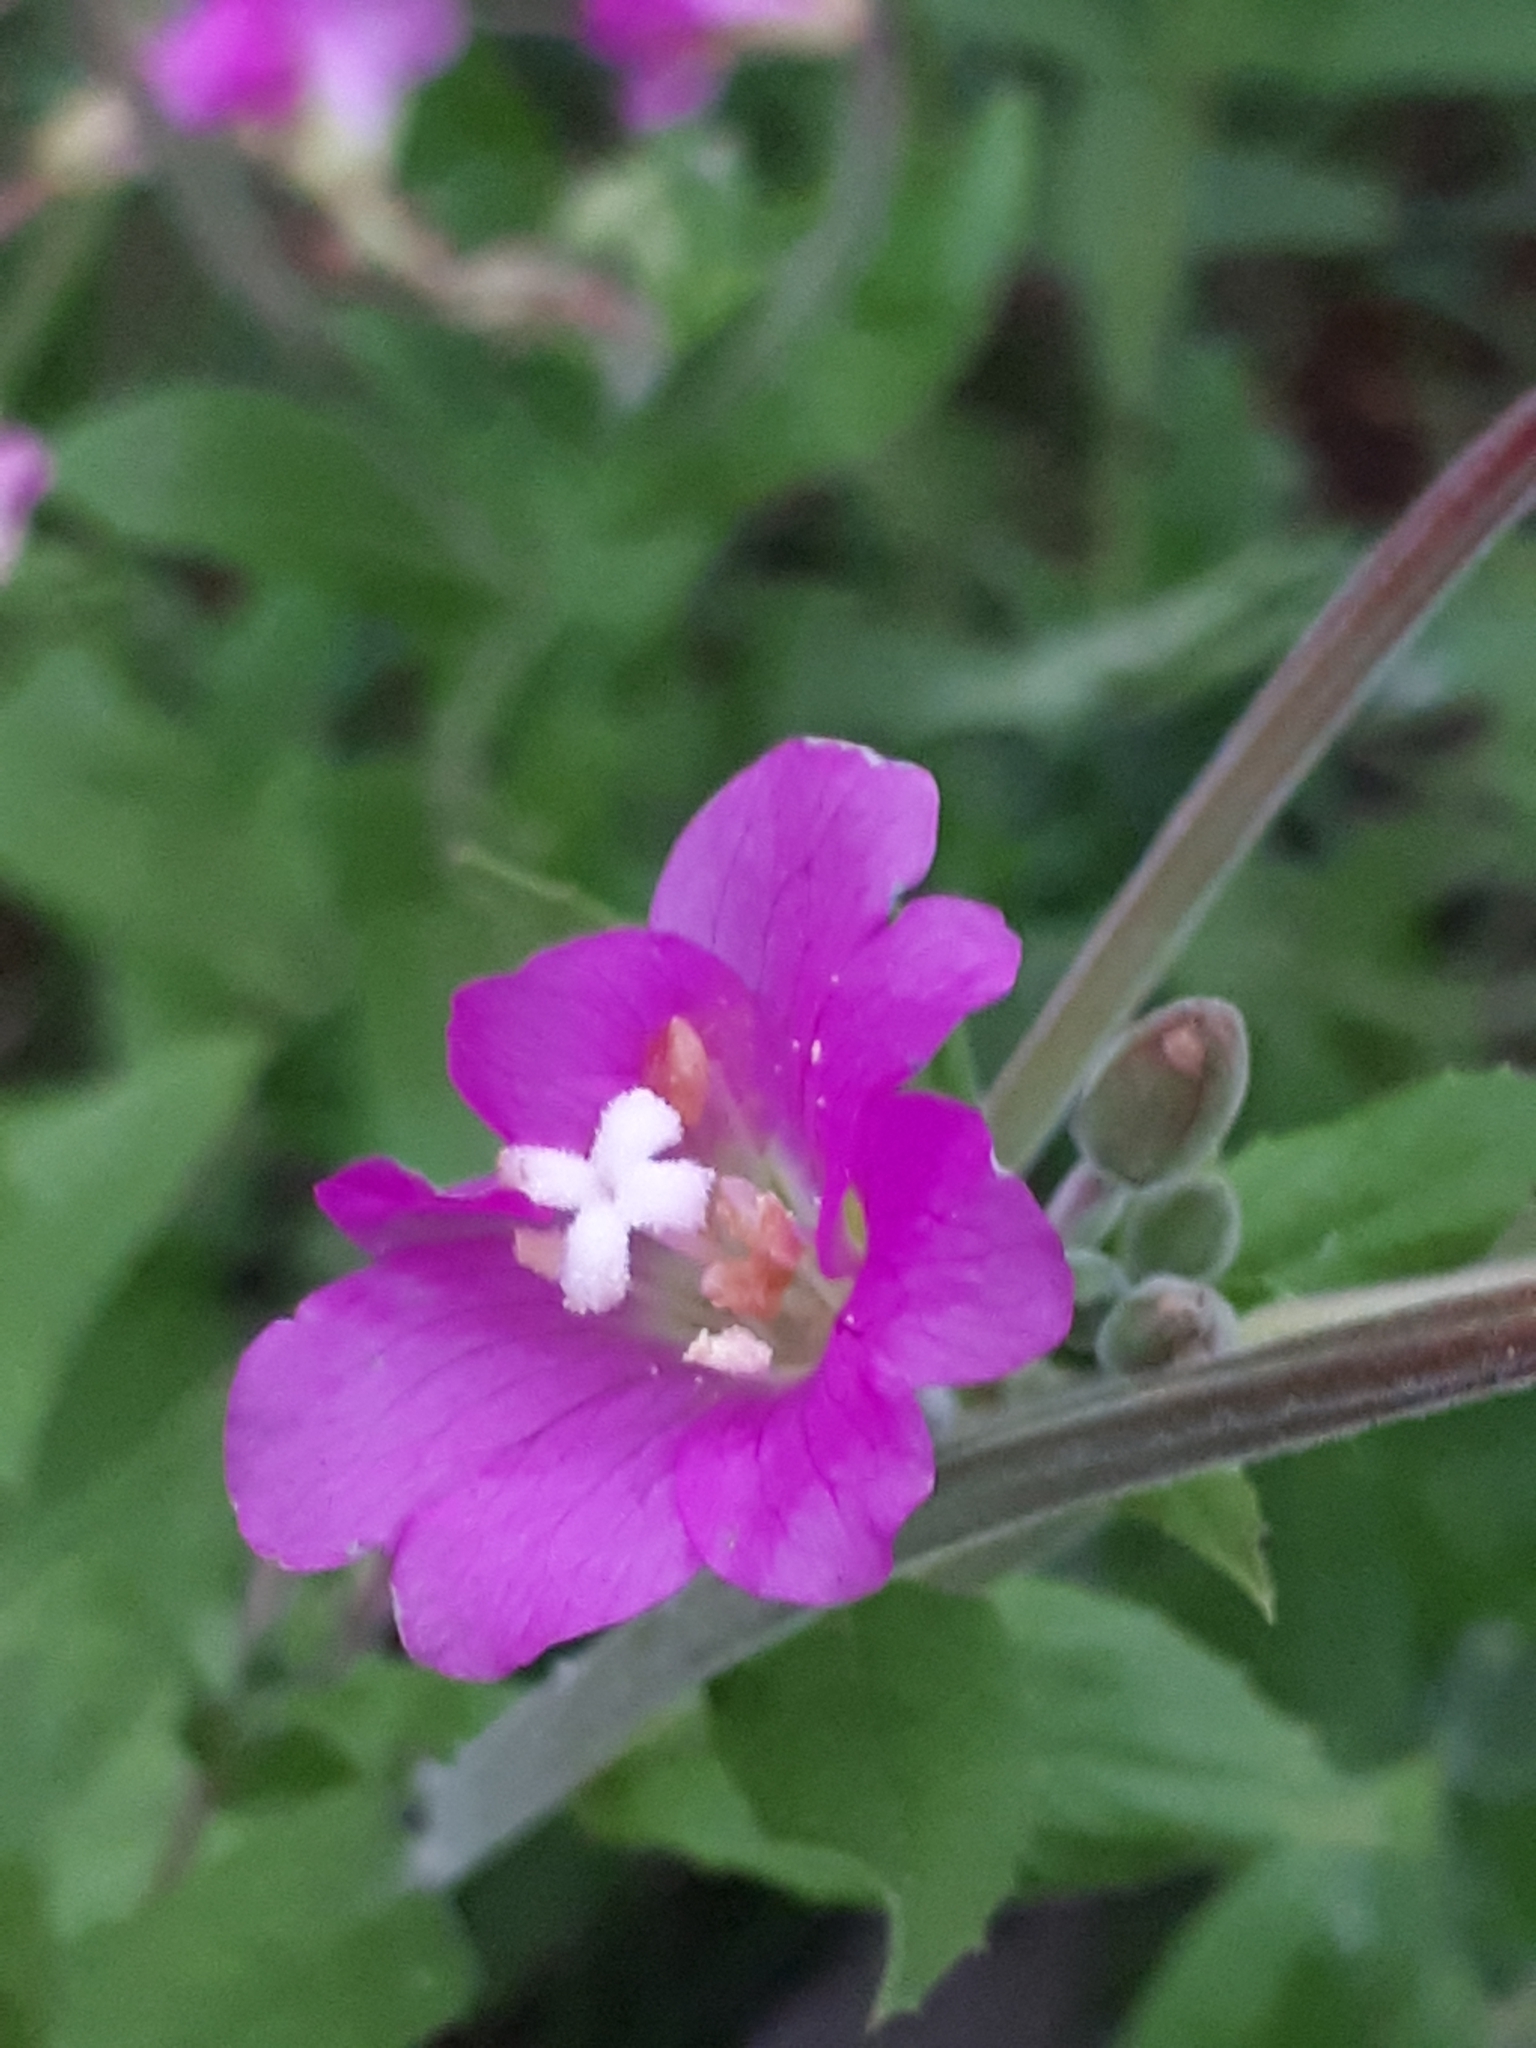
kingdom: Plantae
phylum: Tracheophyta
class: Magnoliopsida
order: Myrtales
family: Onagraceae
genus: Epilobium
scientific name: Epilobium hirsutum
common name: Great willowherb
